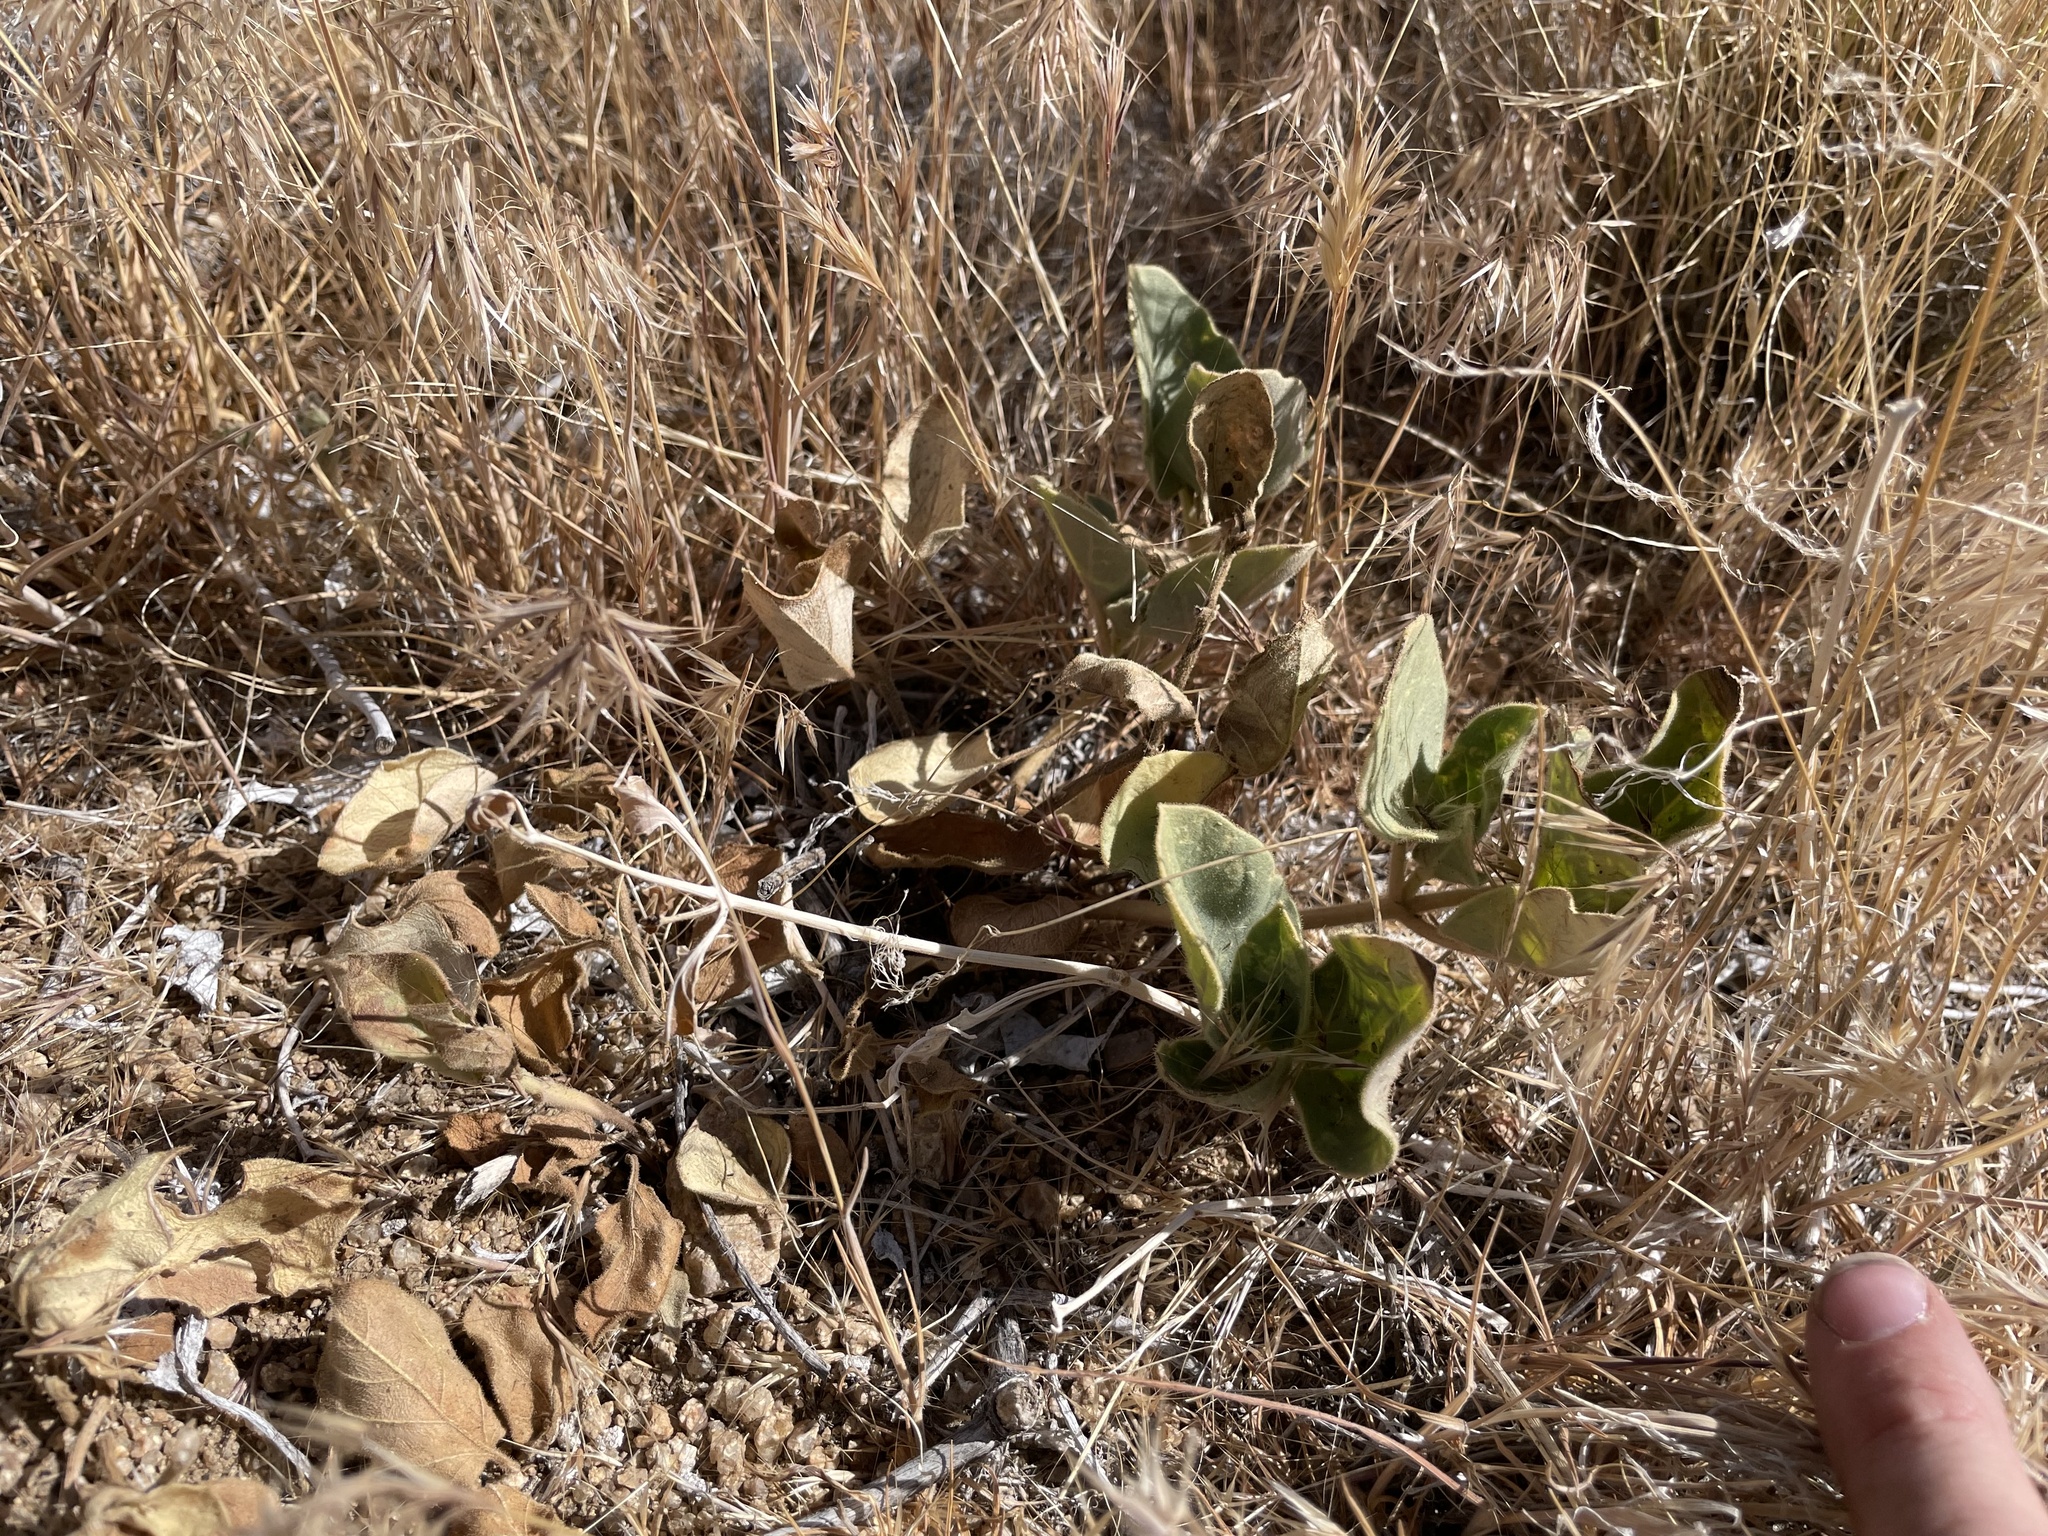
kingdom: Plantae
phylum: Tracheophyta
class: Magnoliopsida
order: Caryophyllales
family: Nyctaginaceae
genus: Mirabilis
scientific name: Mirabilis multiflora
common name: Froebel's four-o'clock
